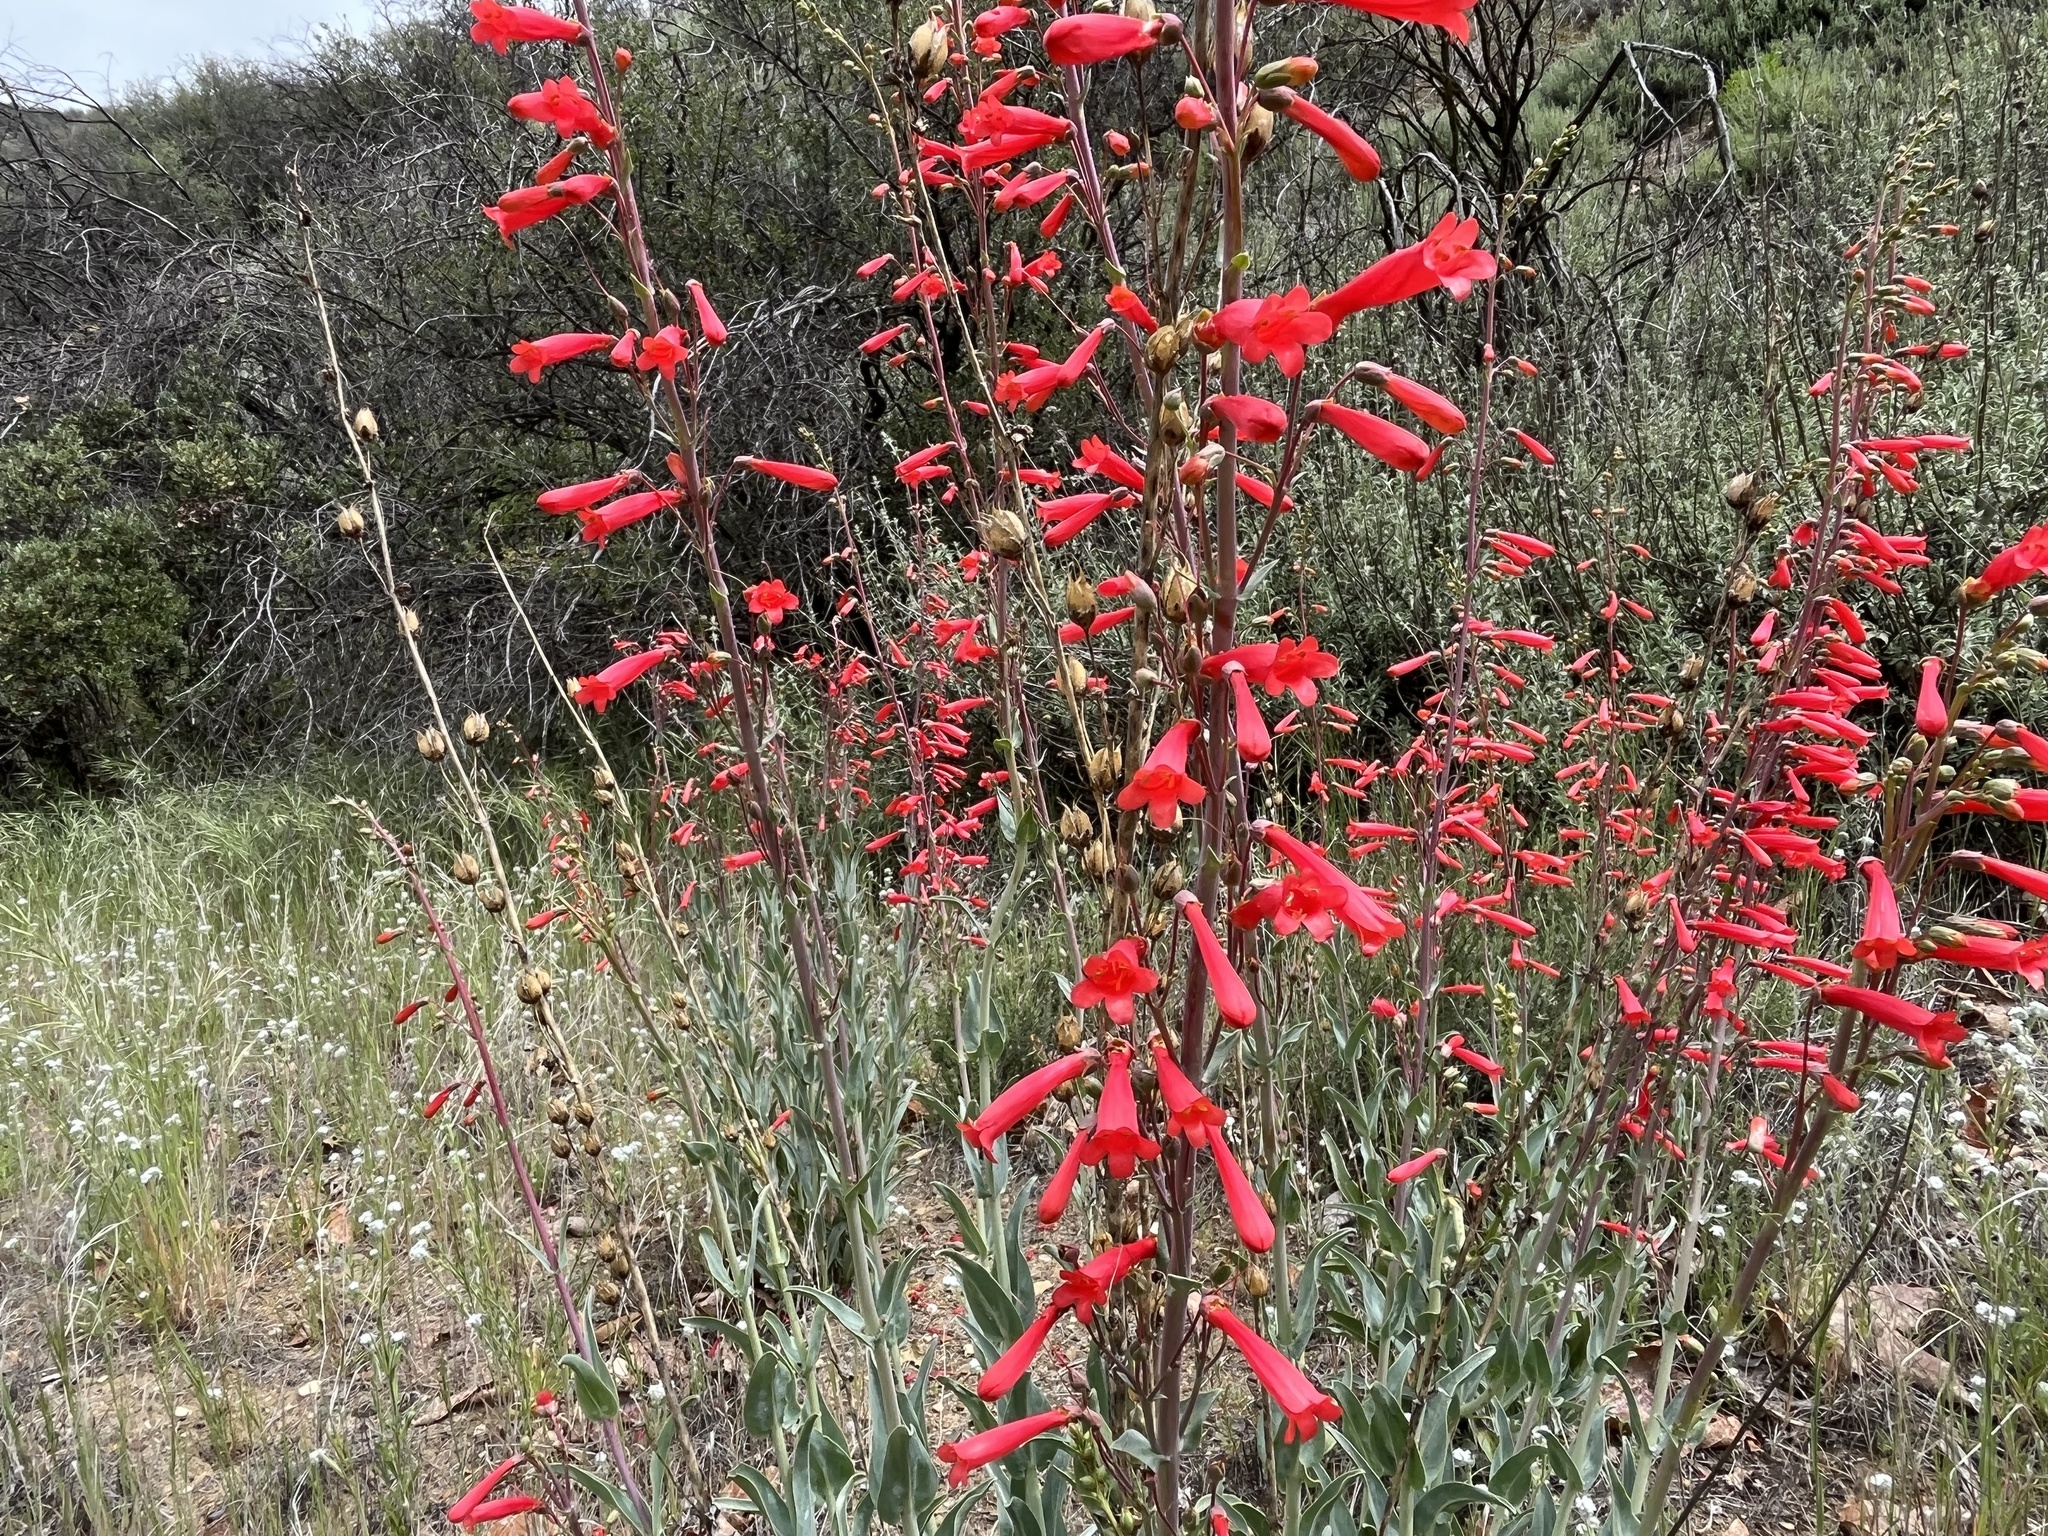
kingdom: Plantae
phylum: Tracheophyta
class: Magnoliopsida
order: Lamiales
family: Plantaginaceae
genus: Penstemon
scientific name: Penstemon centranthifolius
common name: Scarlet bugler
